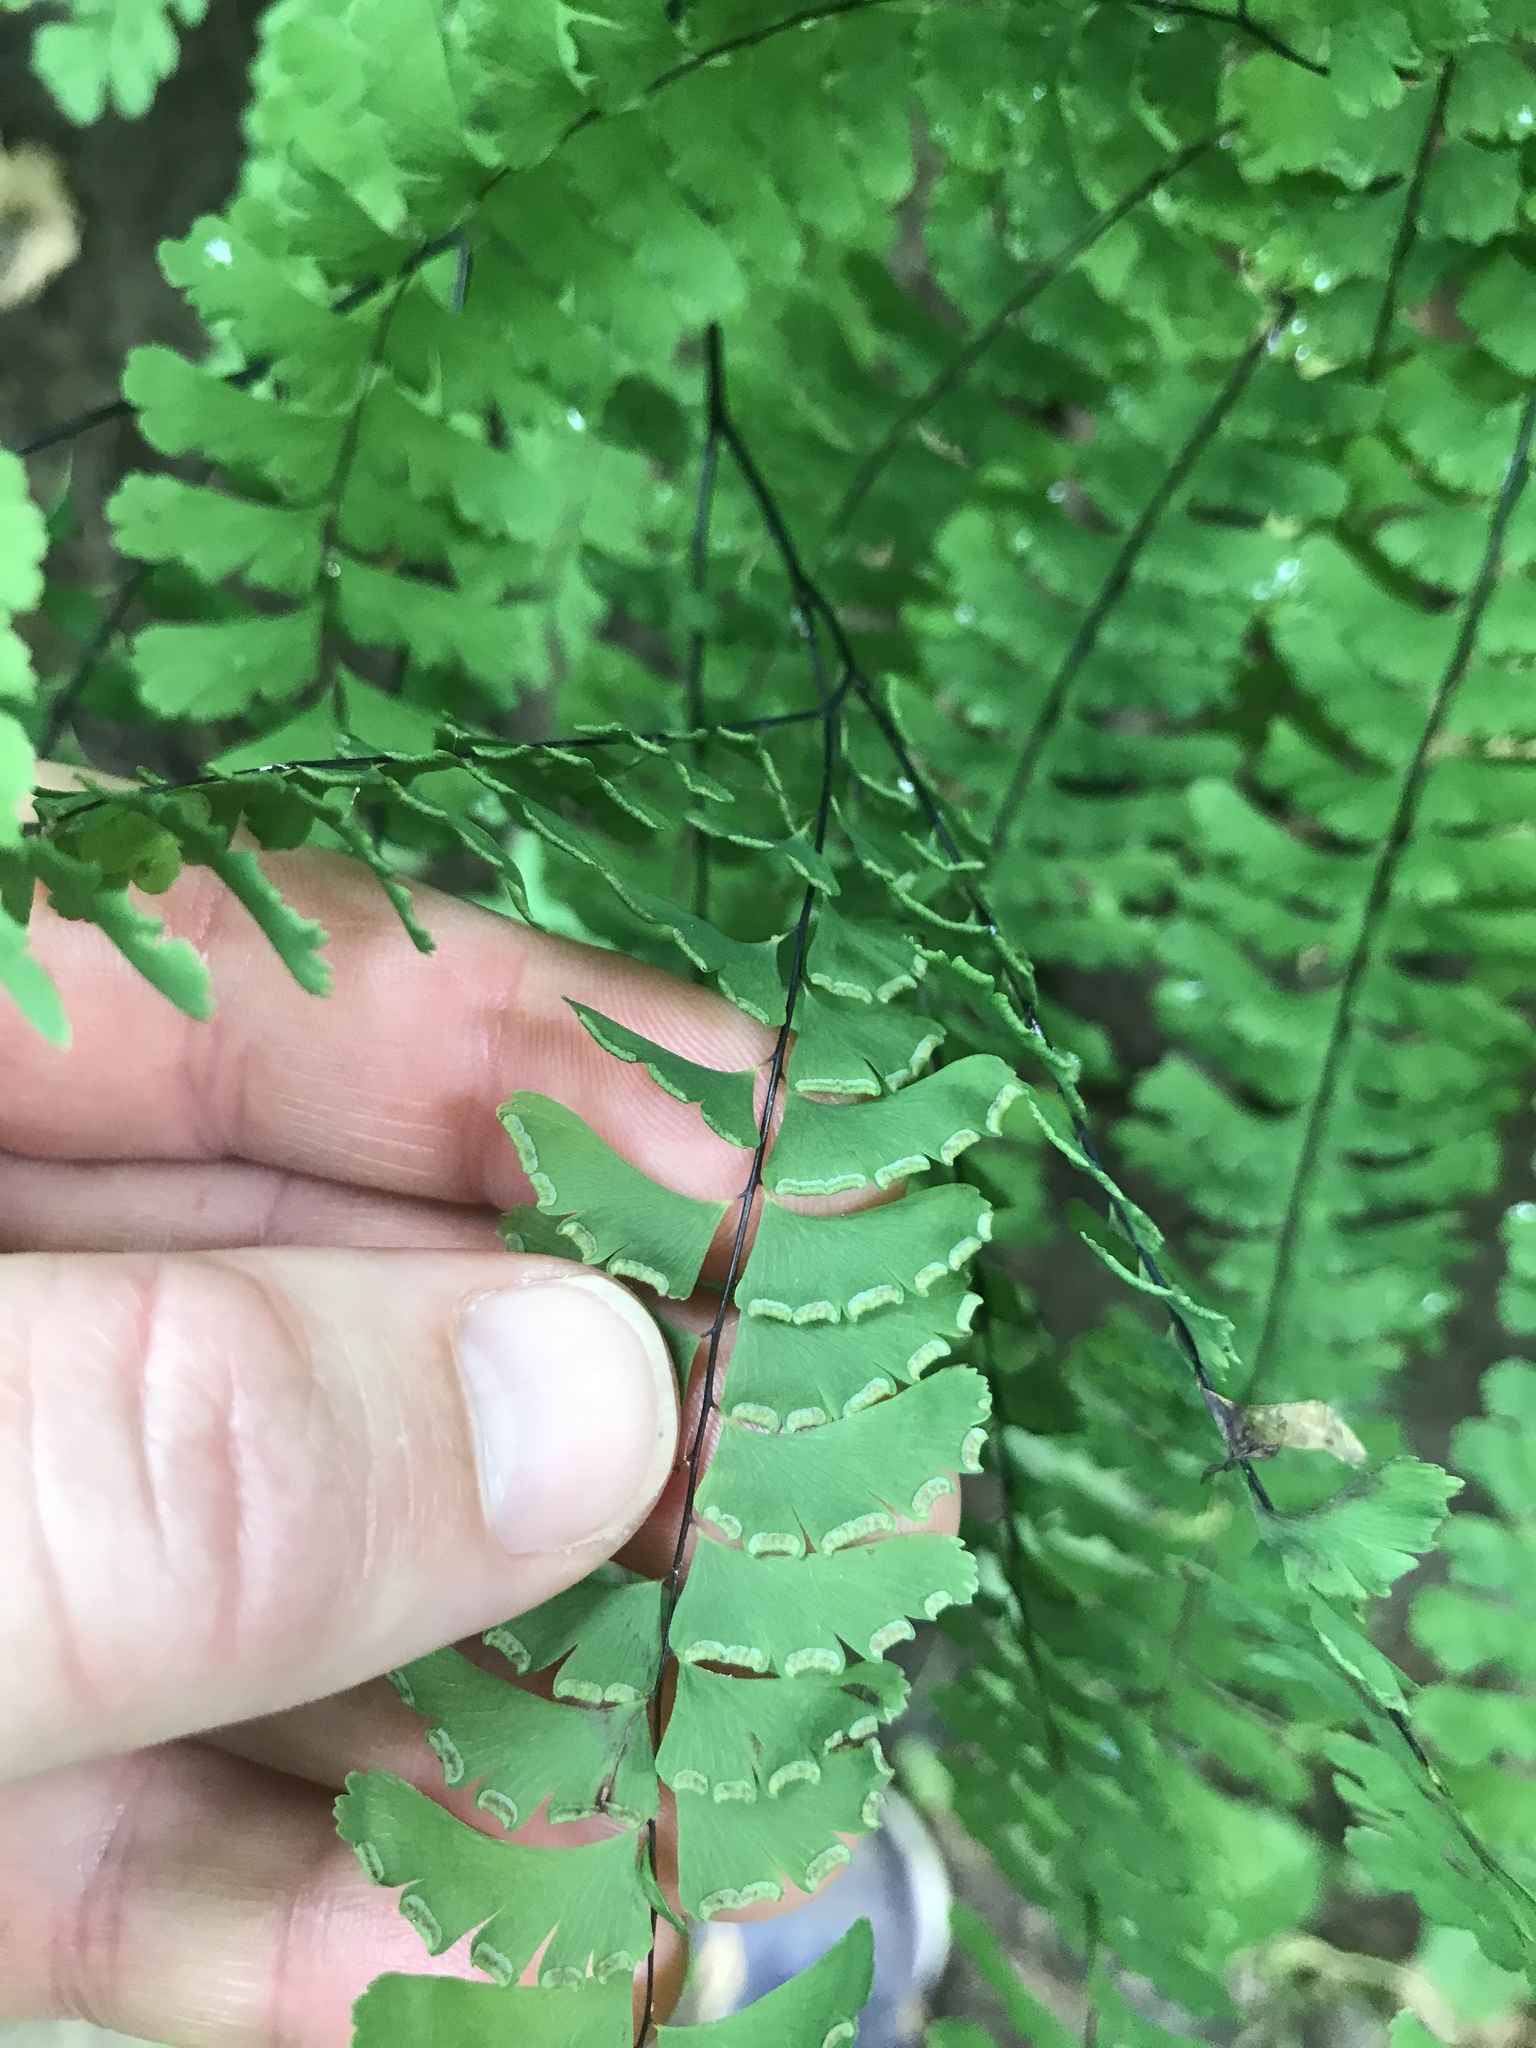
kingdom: Plantae
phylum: Tracheophyta
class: Polypodiopsida
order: Polypodiales
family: Pteridaceae
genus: Adiantum
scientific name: Adiantum pedatum
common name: Five-finger fern
